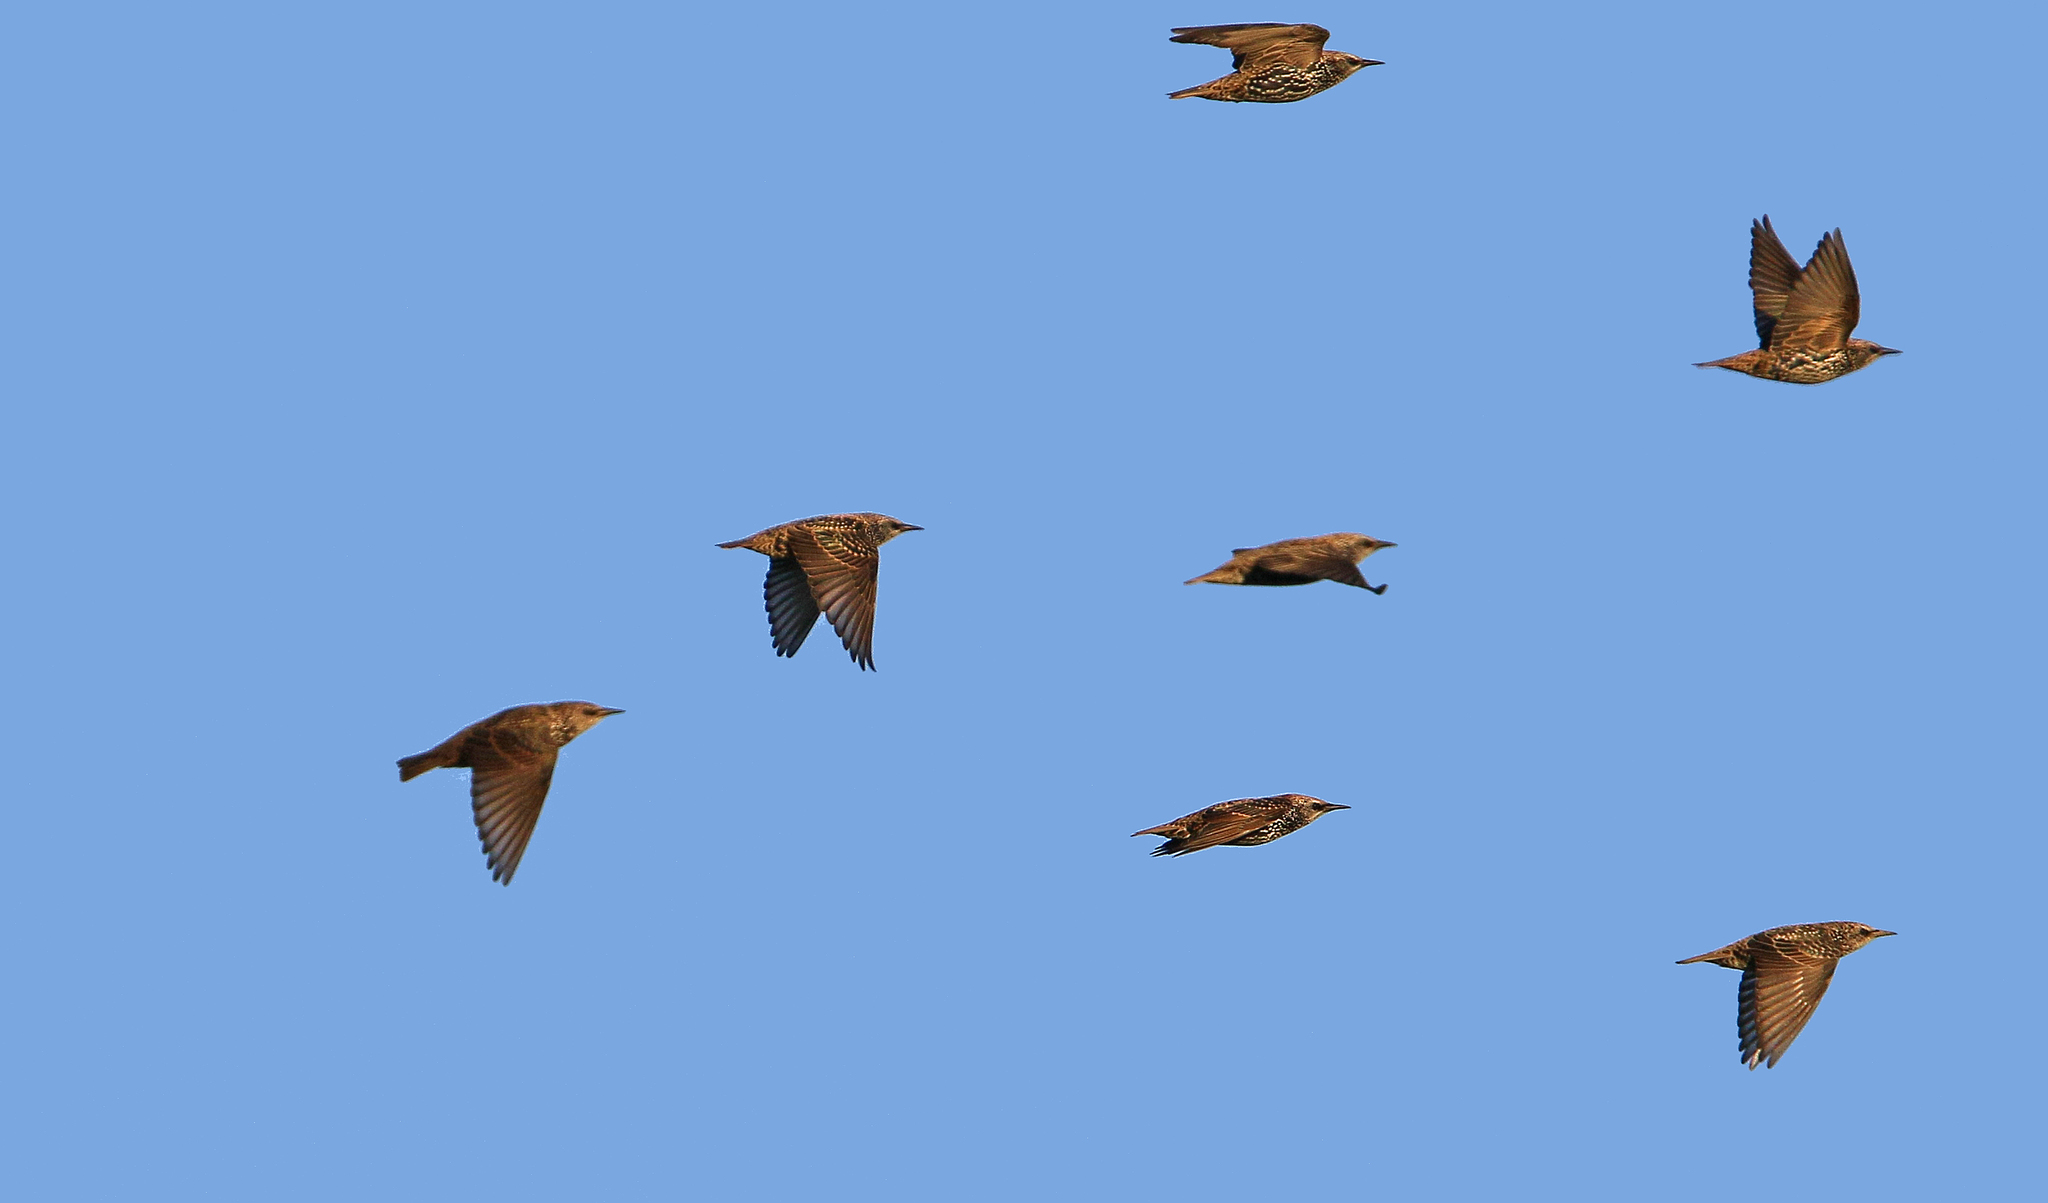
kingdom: Animalia
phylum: Chordata
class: Aves
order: Passeriformes
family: Sturnidae
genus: Sturnus
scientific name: Sturnus vulgaris
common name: Common starling
